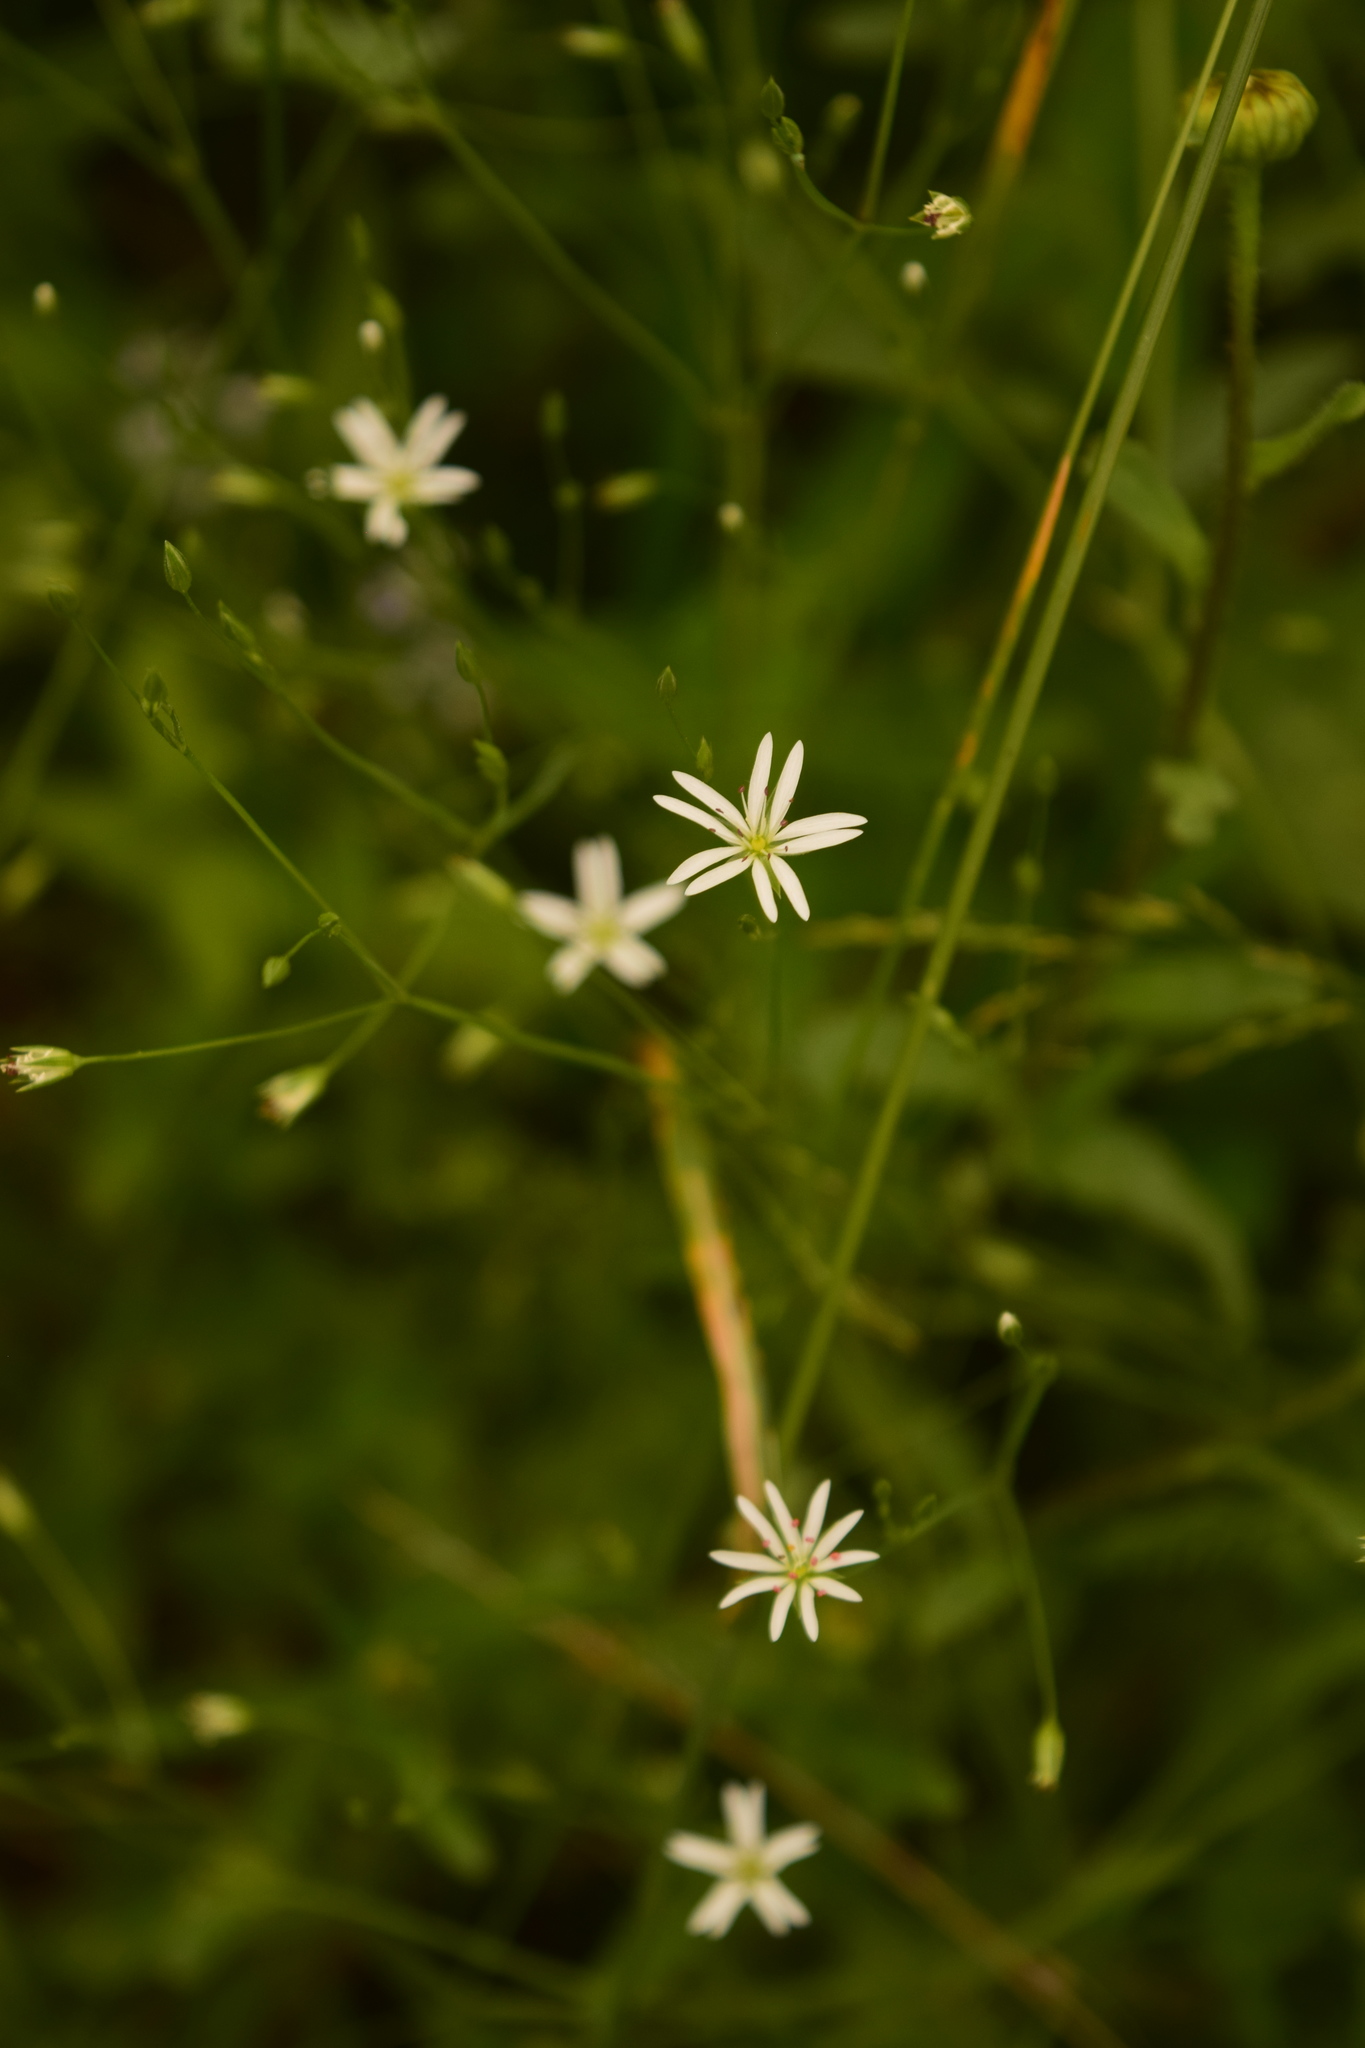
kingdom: Plantae
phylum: Tracheophyta
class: Magnoliopsida
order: Caryophyllales
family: Caryophyllaceae
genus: Stellaria
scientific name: Stellaria graminea
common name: Grass-like starwort
